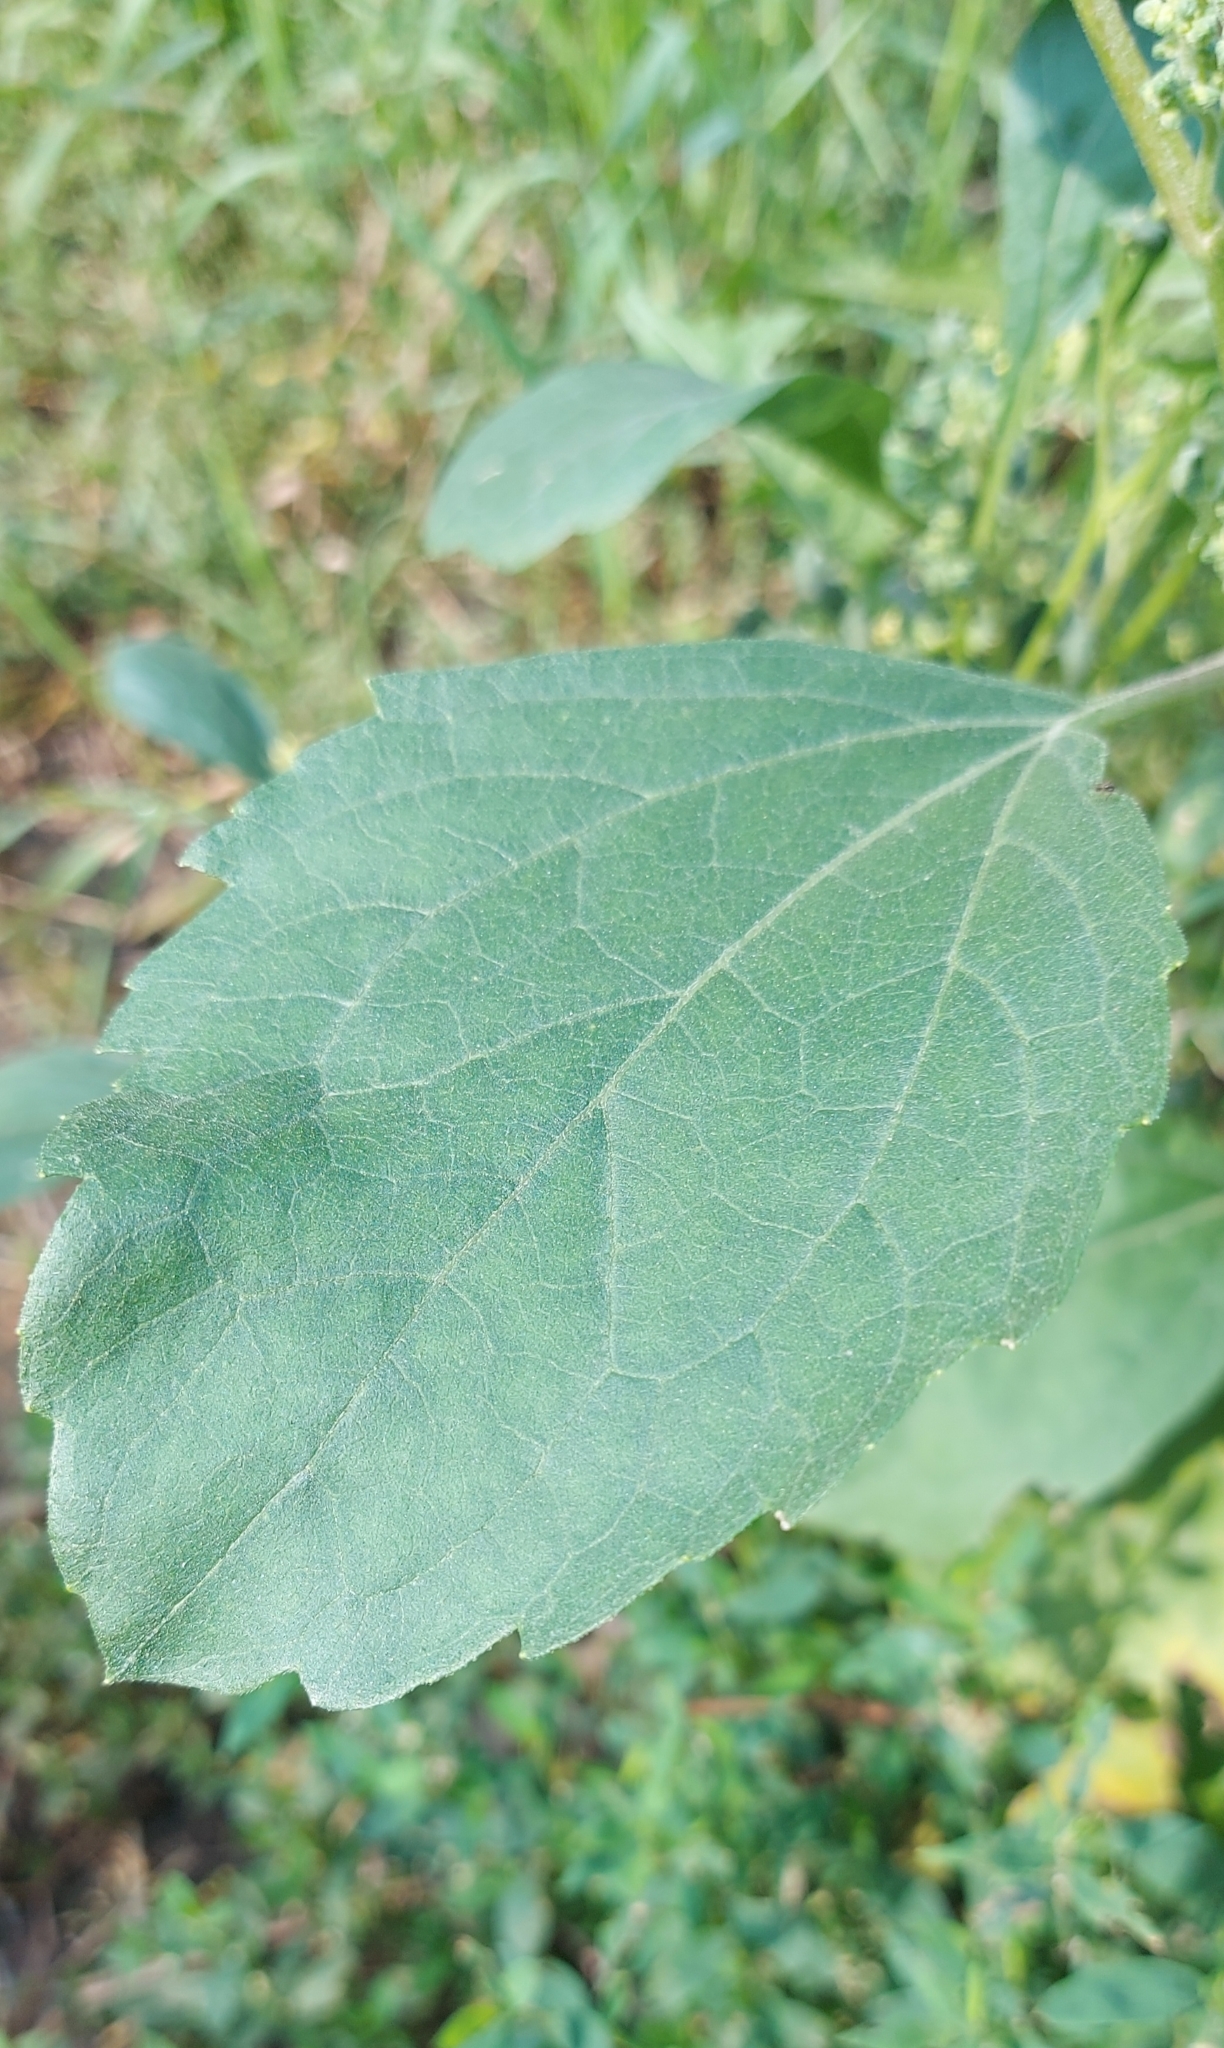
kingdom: Plantae
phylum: Tracheophyta
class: Magnoliopsida
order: Asterales
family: Asteraceae
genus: Cyclachaena
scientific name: Cyclachaena xanthiifolia
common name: Giant sumpweed
